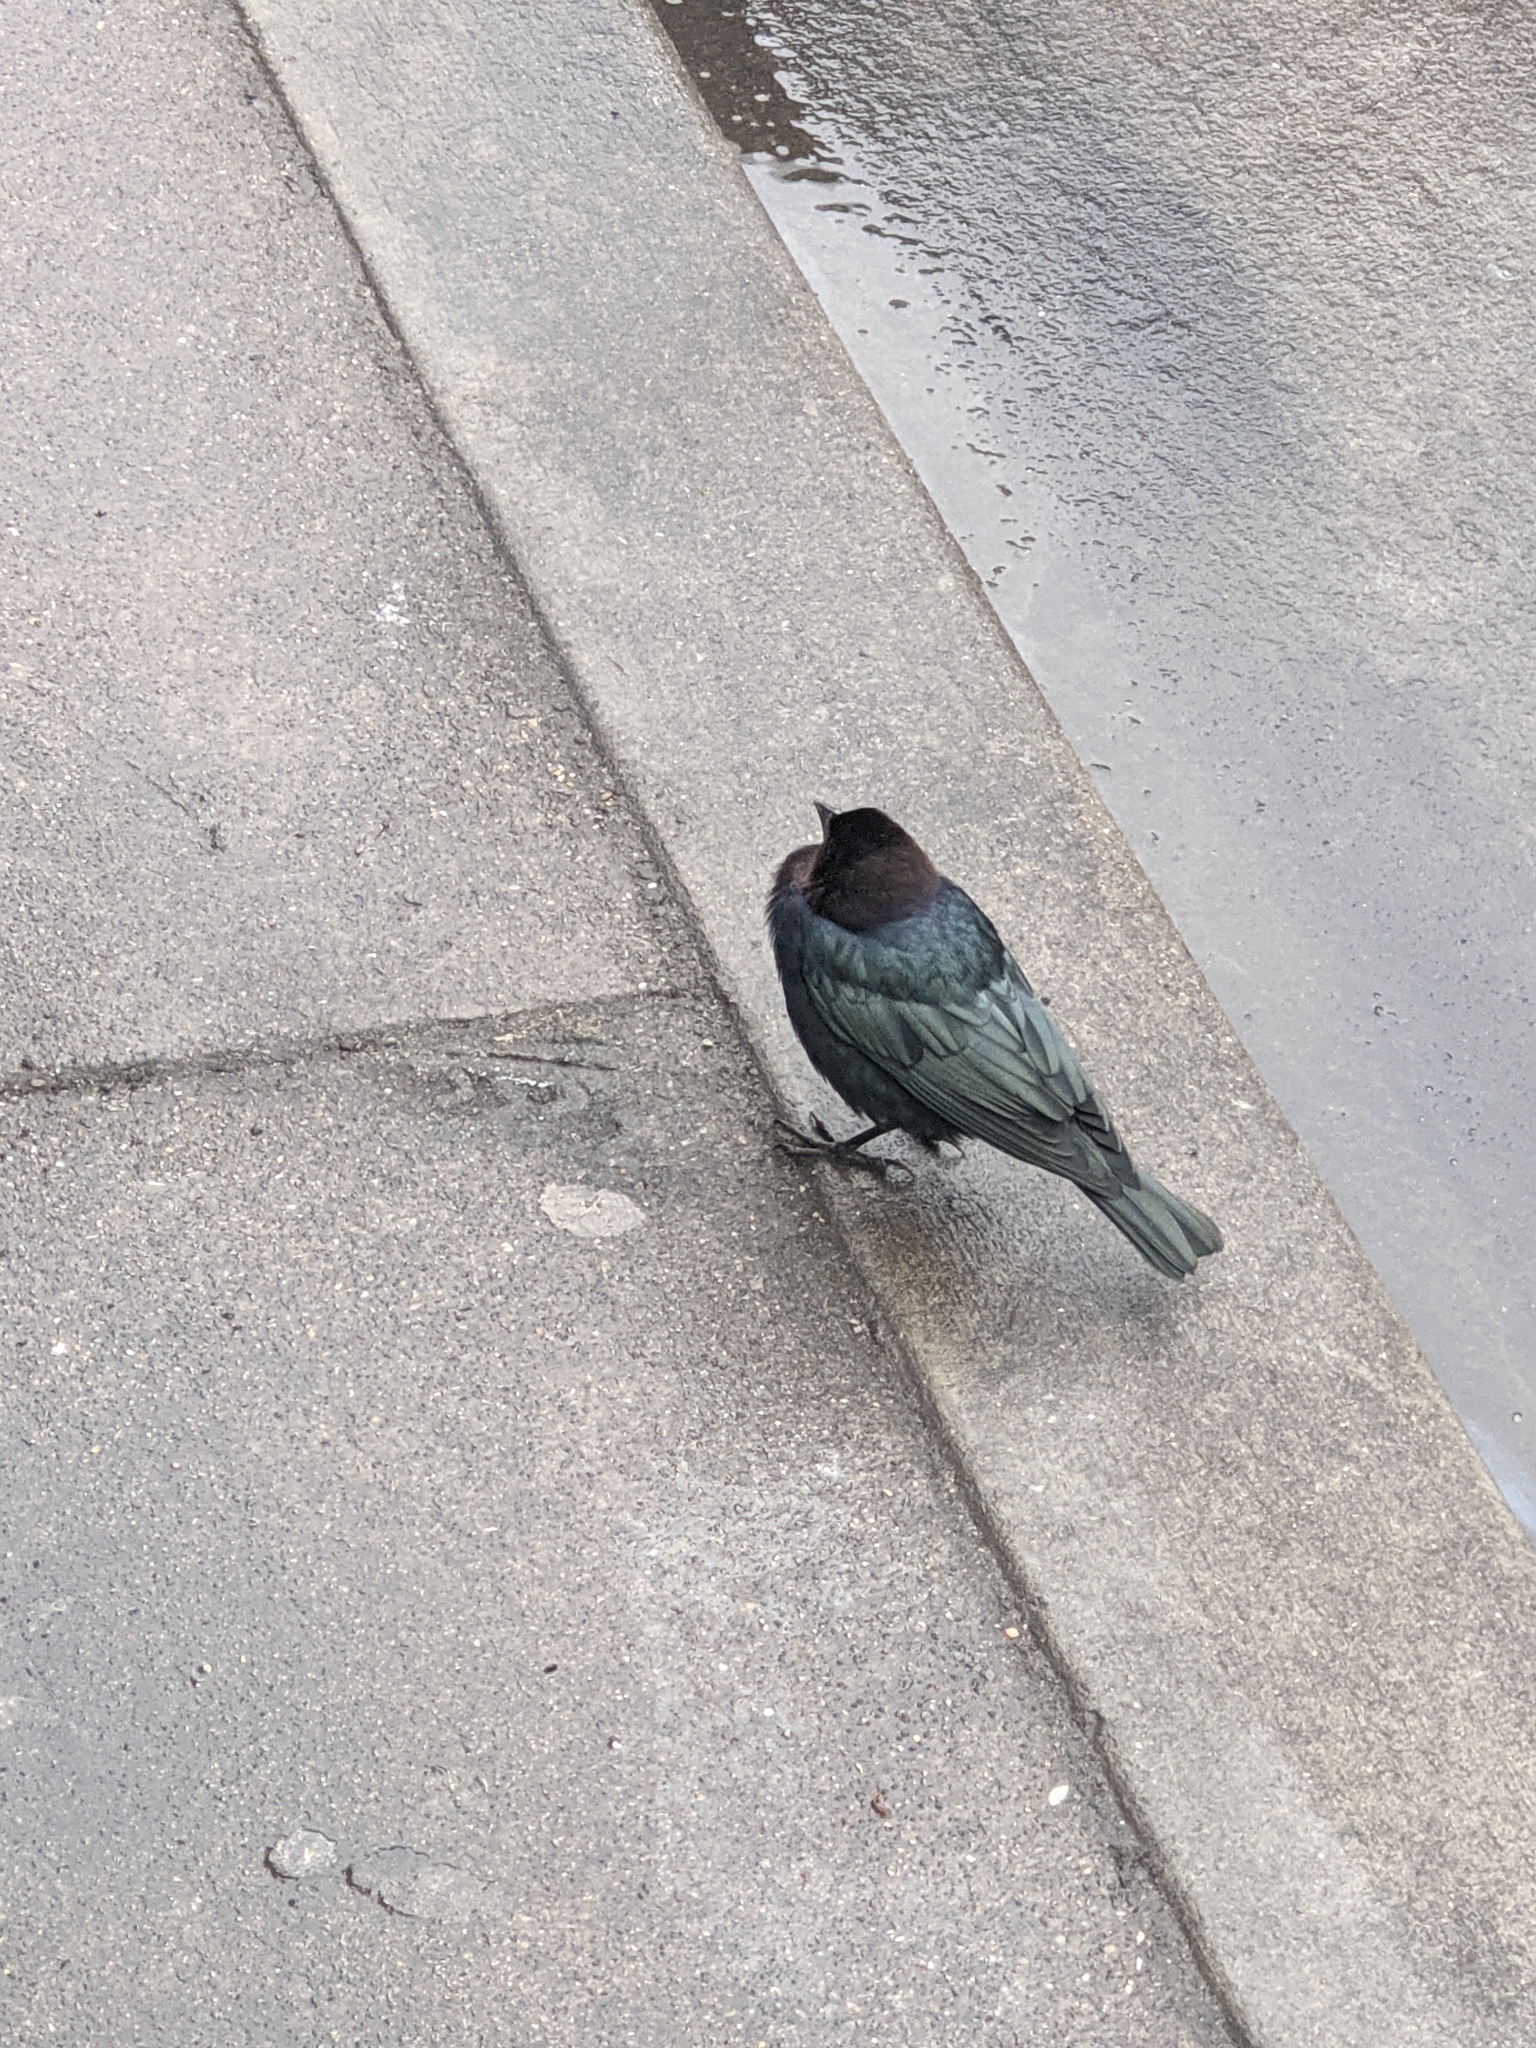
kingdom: Animalia
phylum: Chordata
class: Aves
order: Passeriformes
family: Icteridae
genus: Euphagus
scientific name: Euphagus cyanocephalus
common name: Brewer's blackbird
